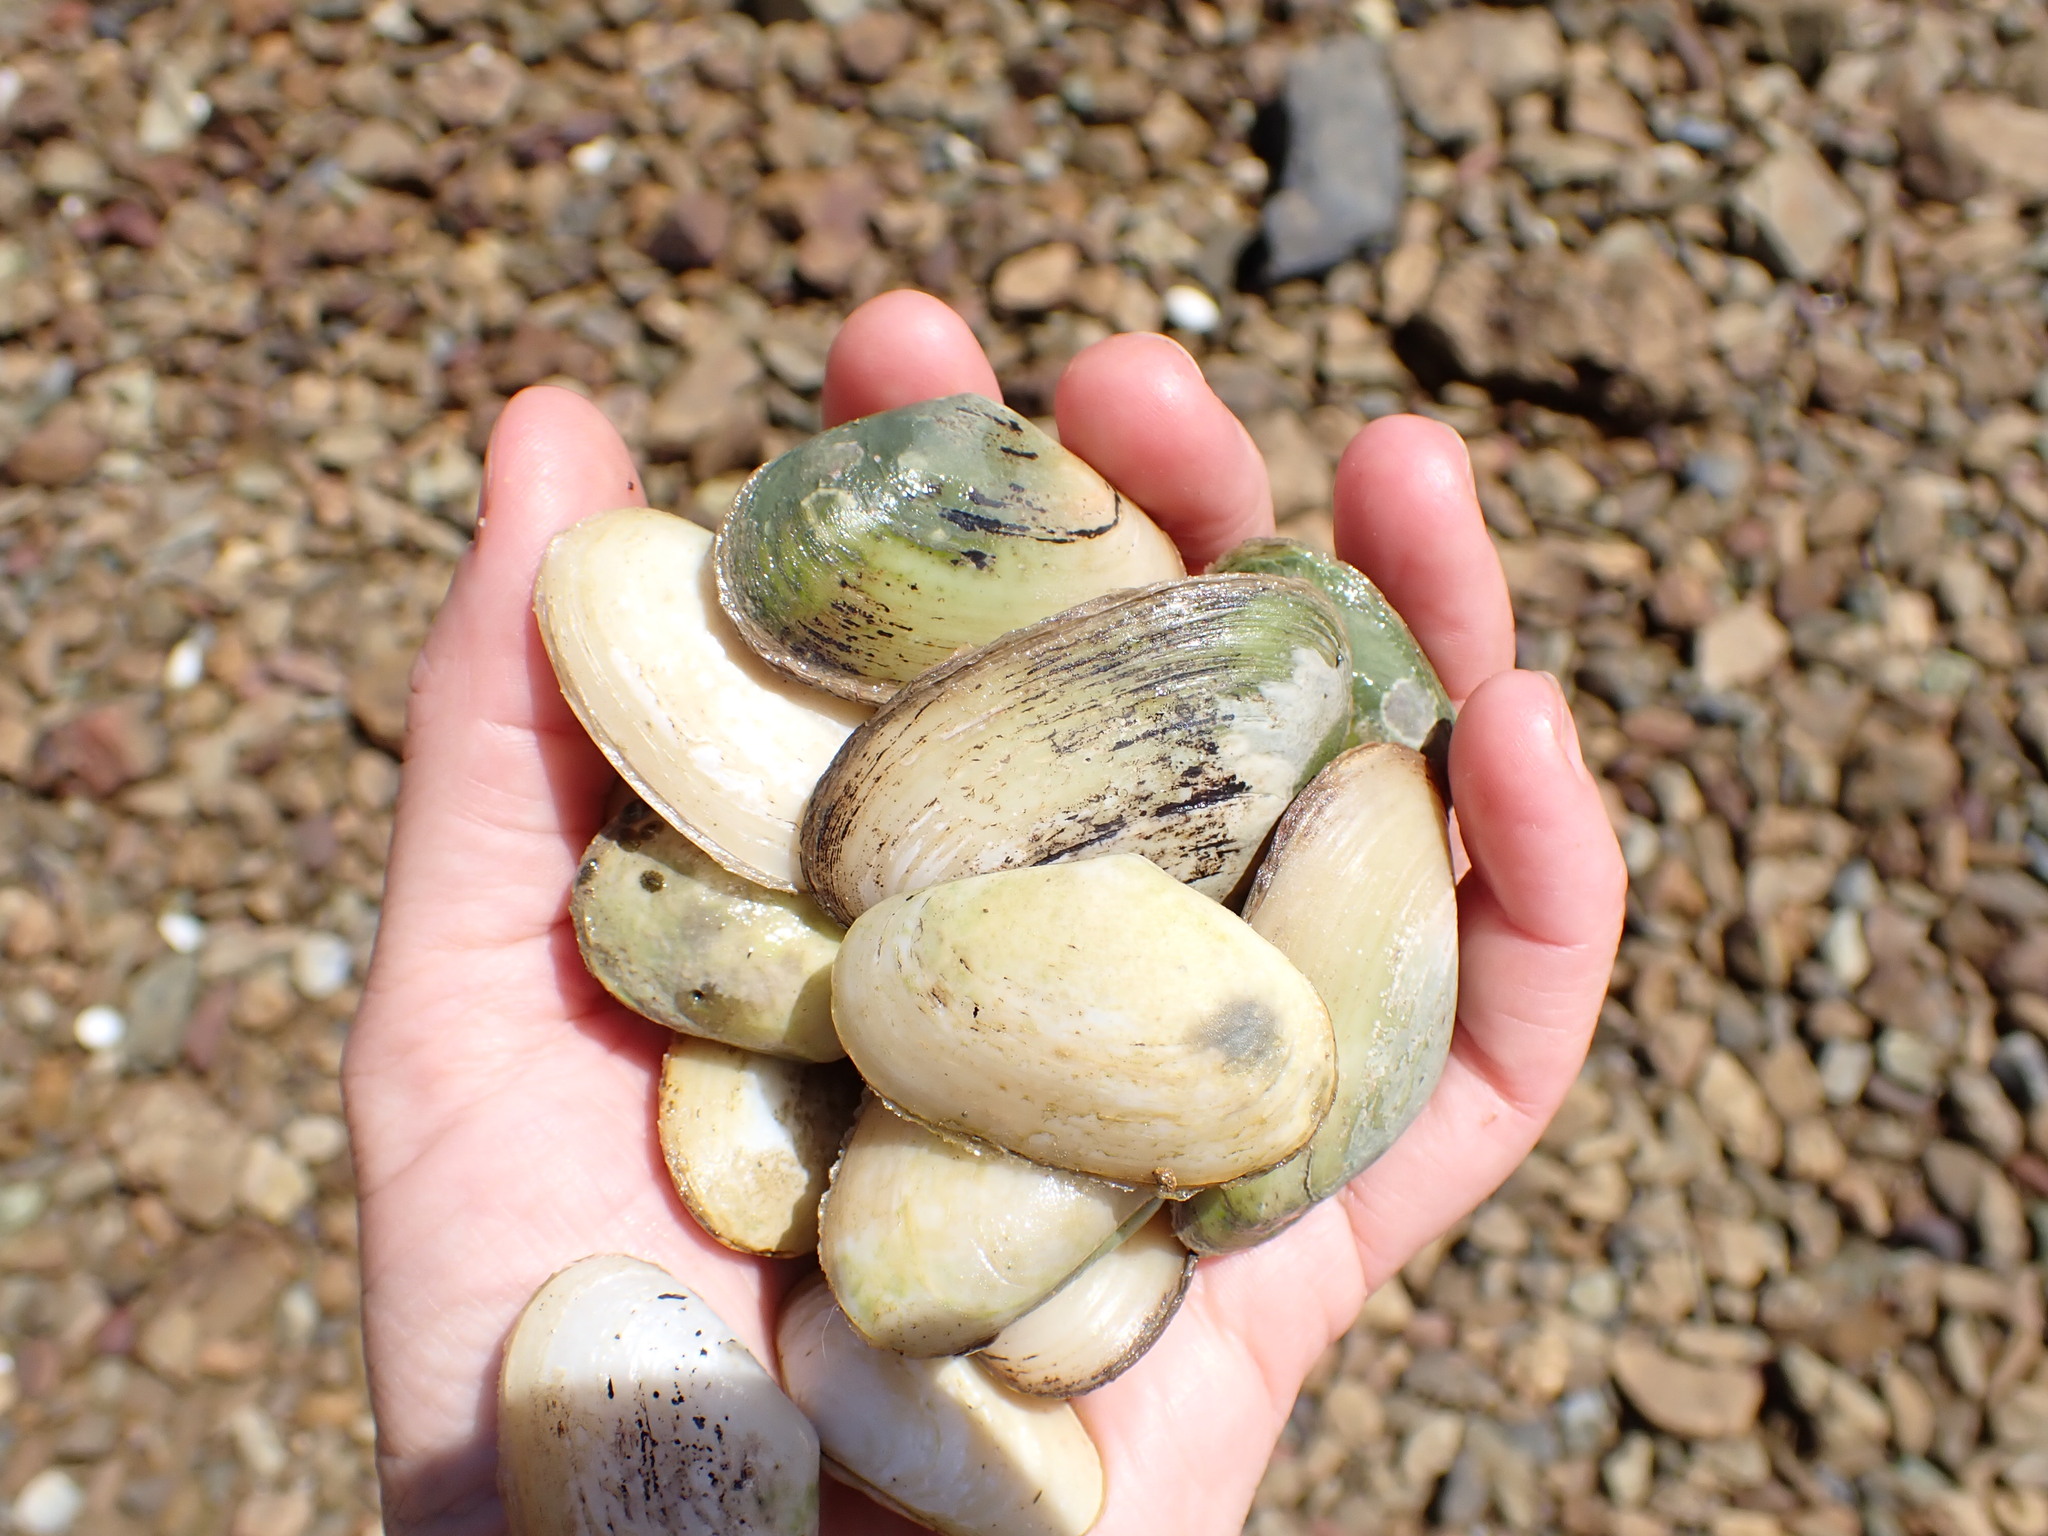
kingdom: Animalia
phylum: Mollusca
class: Bivalvia
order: Venerida
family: Mesodesmatidae
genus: Paphies
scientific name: Paphies australis
